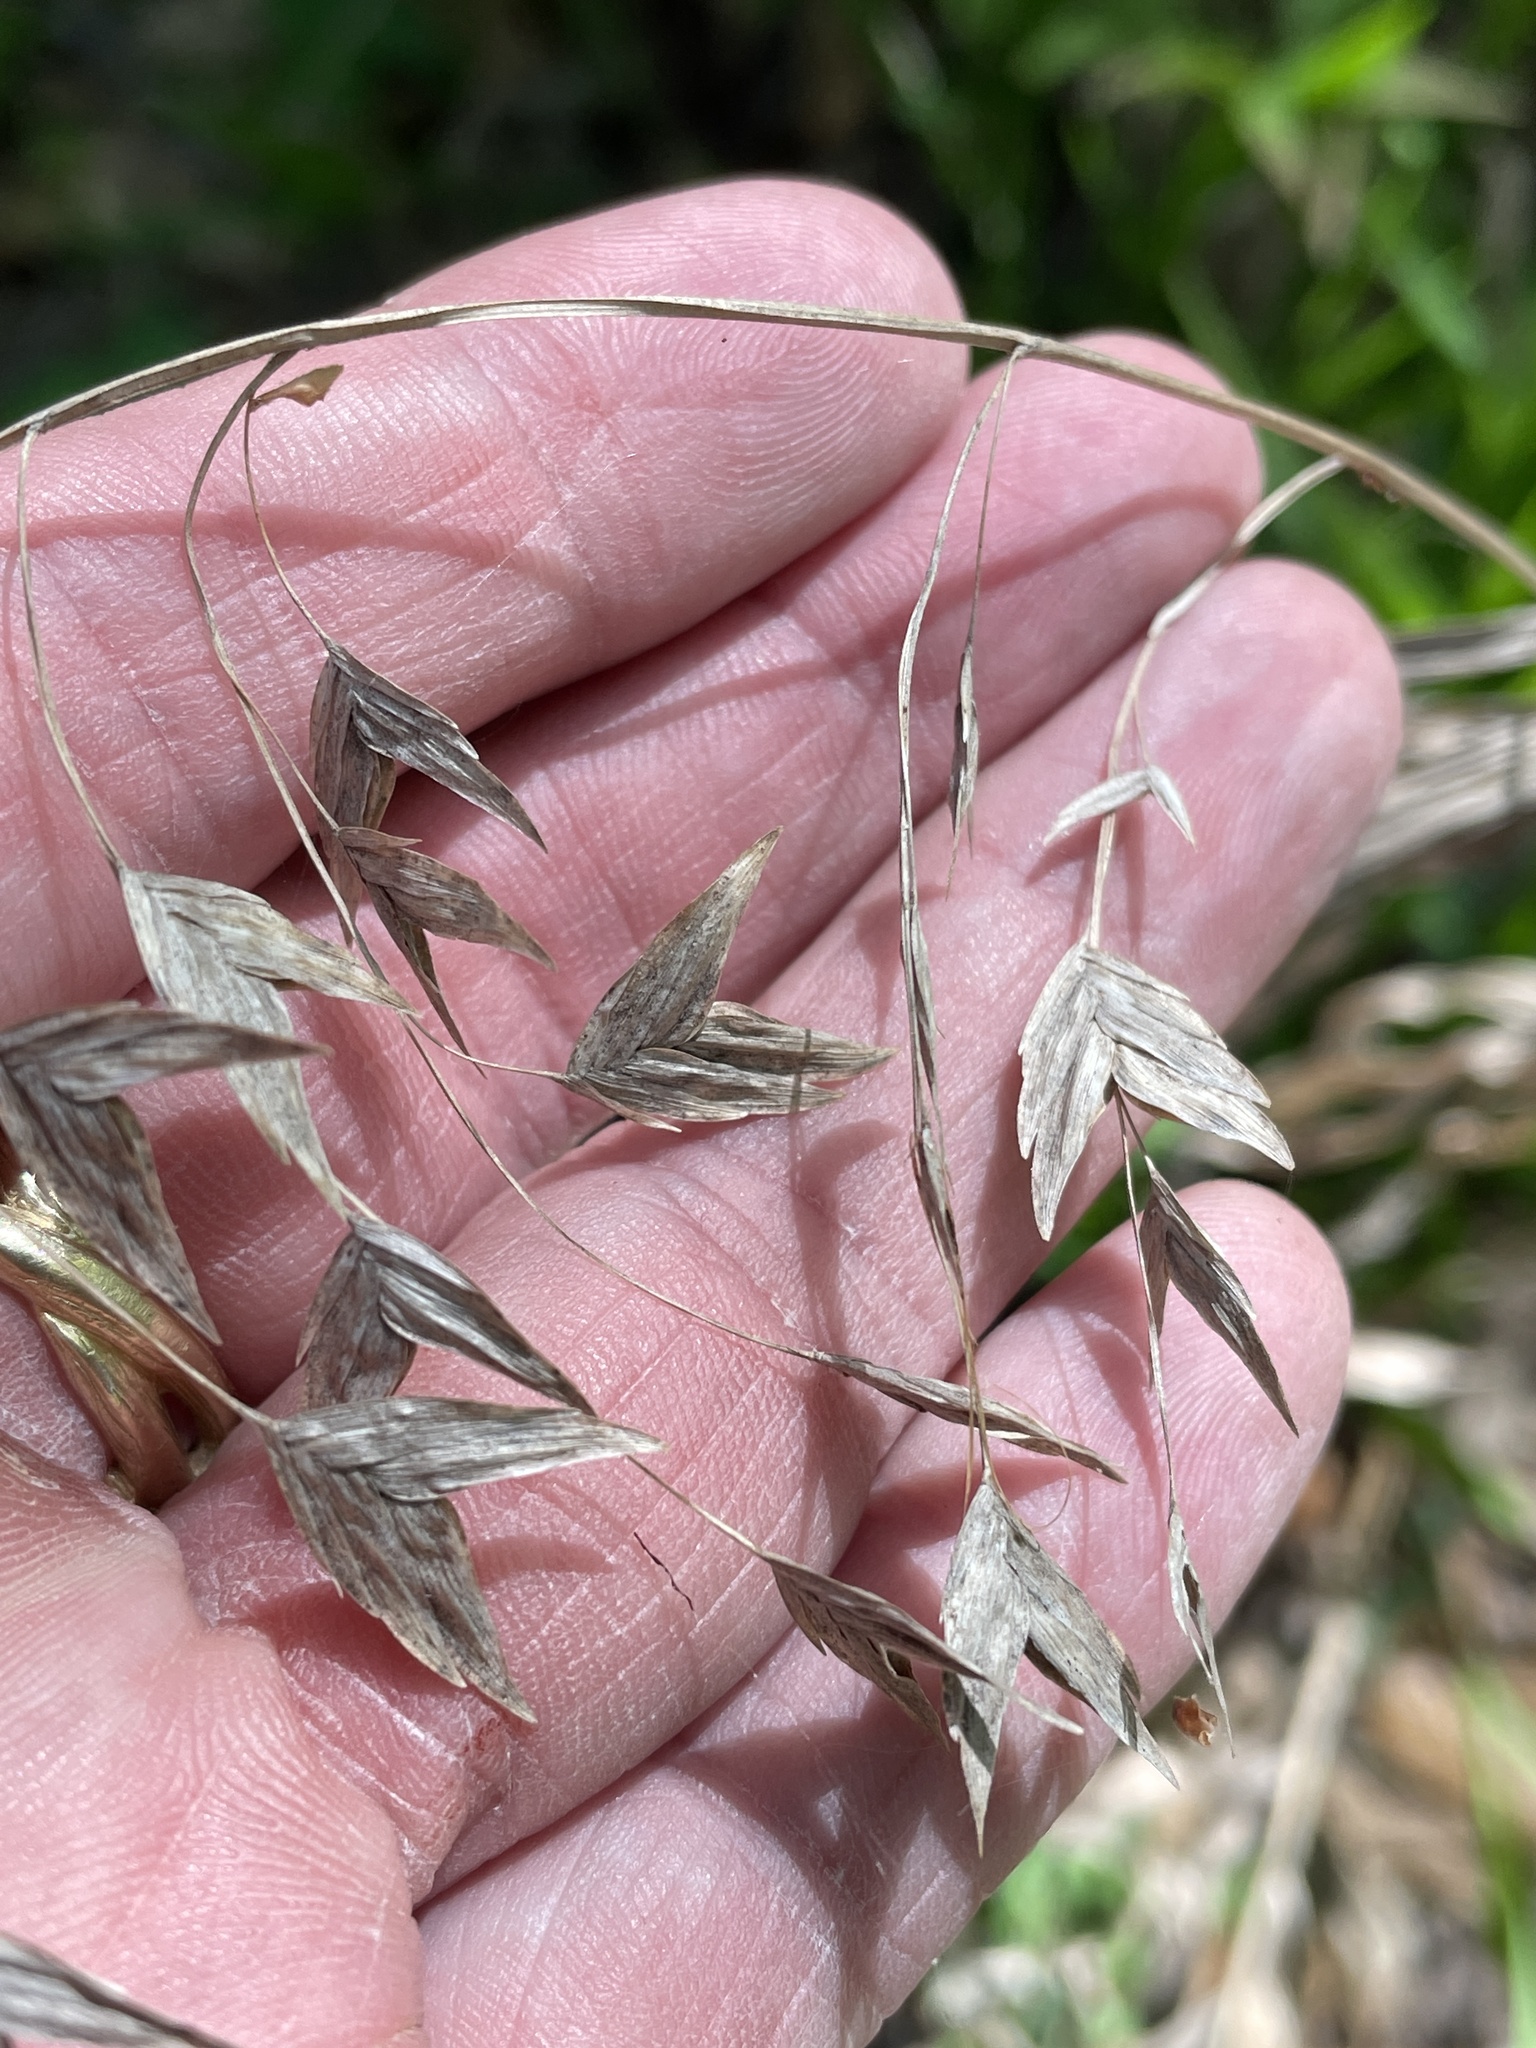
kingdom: Plantae
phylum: Tracheophyta
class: Liliopsida
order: Poales
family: Poaceae
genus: Chasmanthium
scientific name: Chasmanthium latifolium
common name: Broad-leaved chasmanthium
